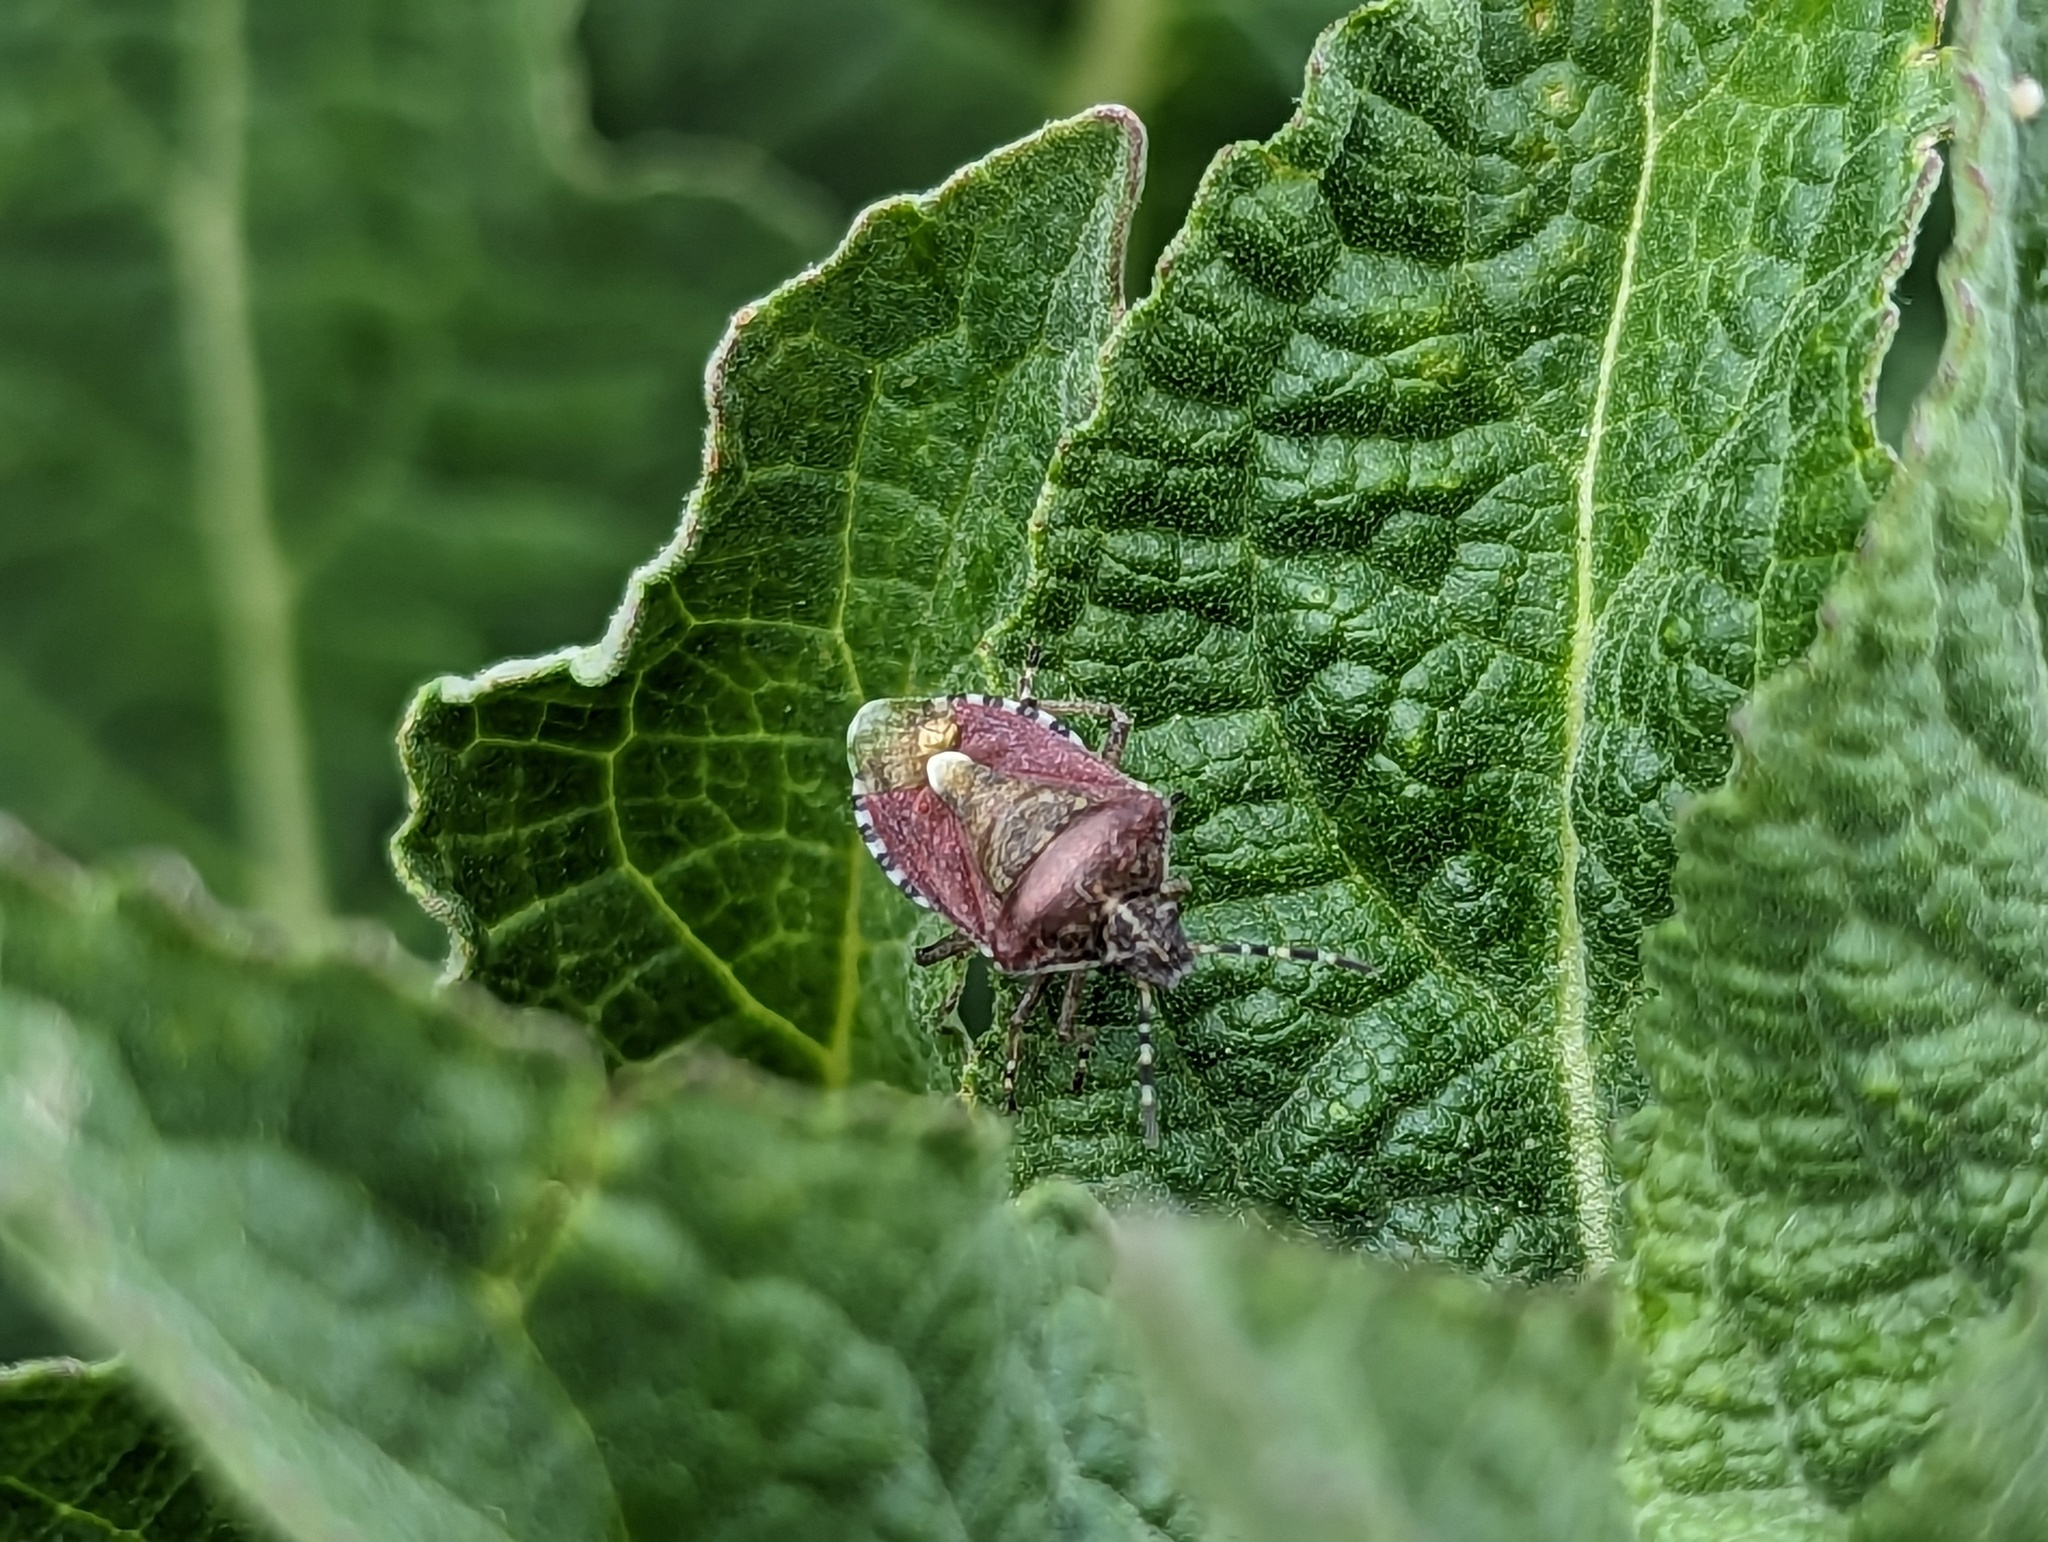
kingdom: Animalia
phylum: Arthropoda
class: Insecta
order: Hemiptera
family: Pentatomidae
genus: Dolycoris
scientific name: Dolycoris baccarum
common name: Sloe bug
